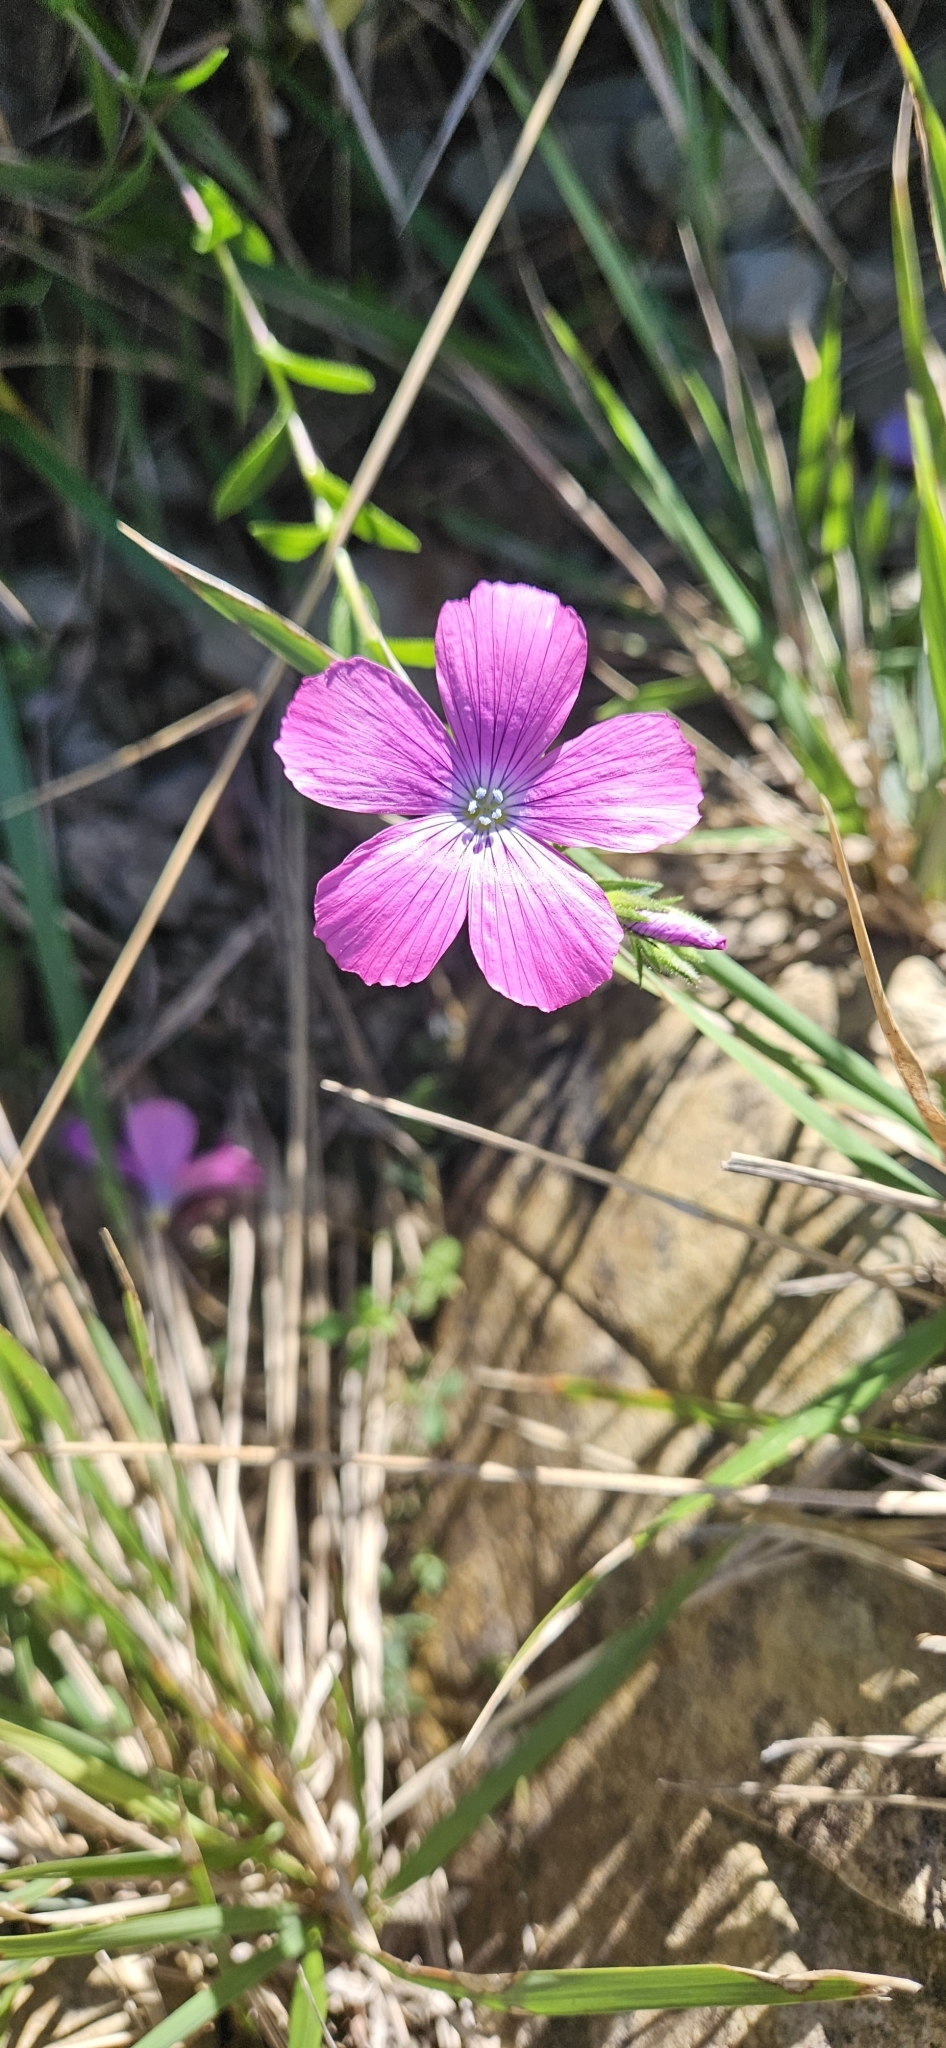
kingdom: Plantae
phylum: Tracheophyta
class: Magnoliopsida
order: Malpighiales
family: Linaceae
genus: Linum
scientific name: Linum viscosum
